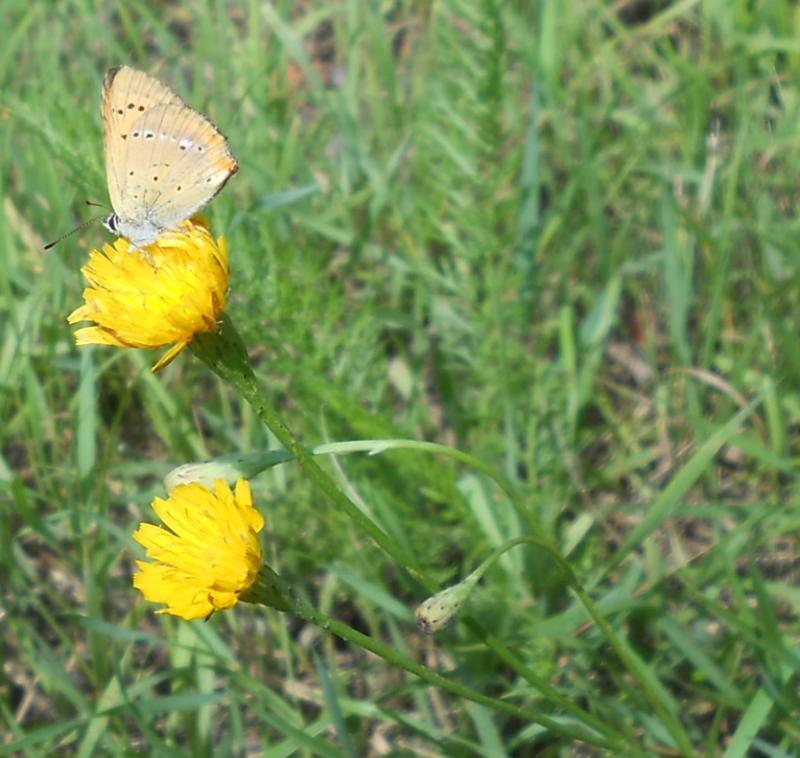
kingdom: Animalia
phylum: Arthropoda
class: Insecta
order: Lepidoptera
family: Lycaenidae
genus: Lycaena
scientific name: Lycaena virgaureae
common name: Scarce copper
